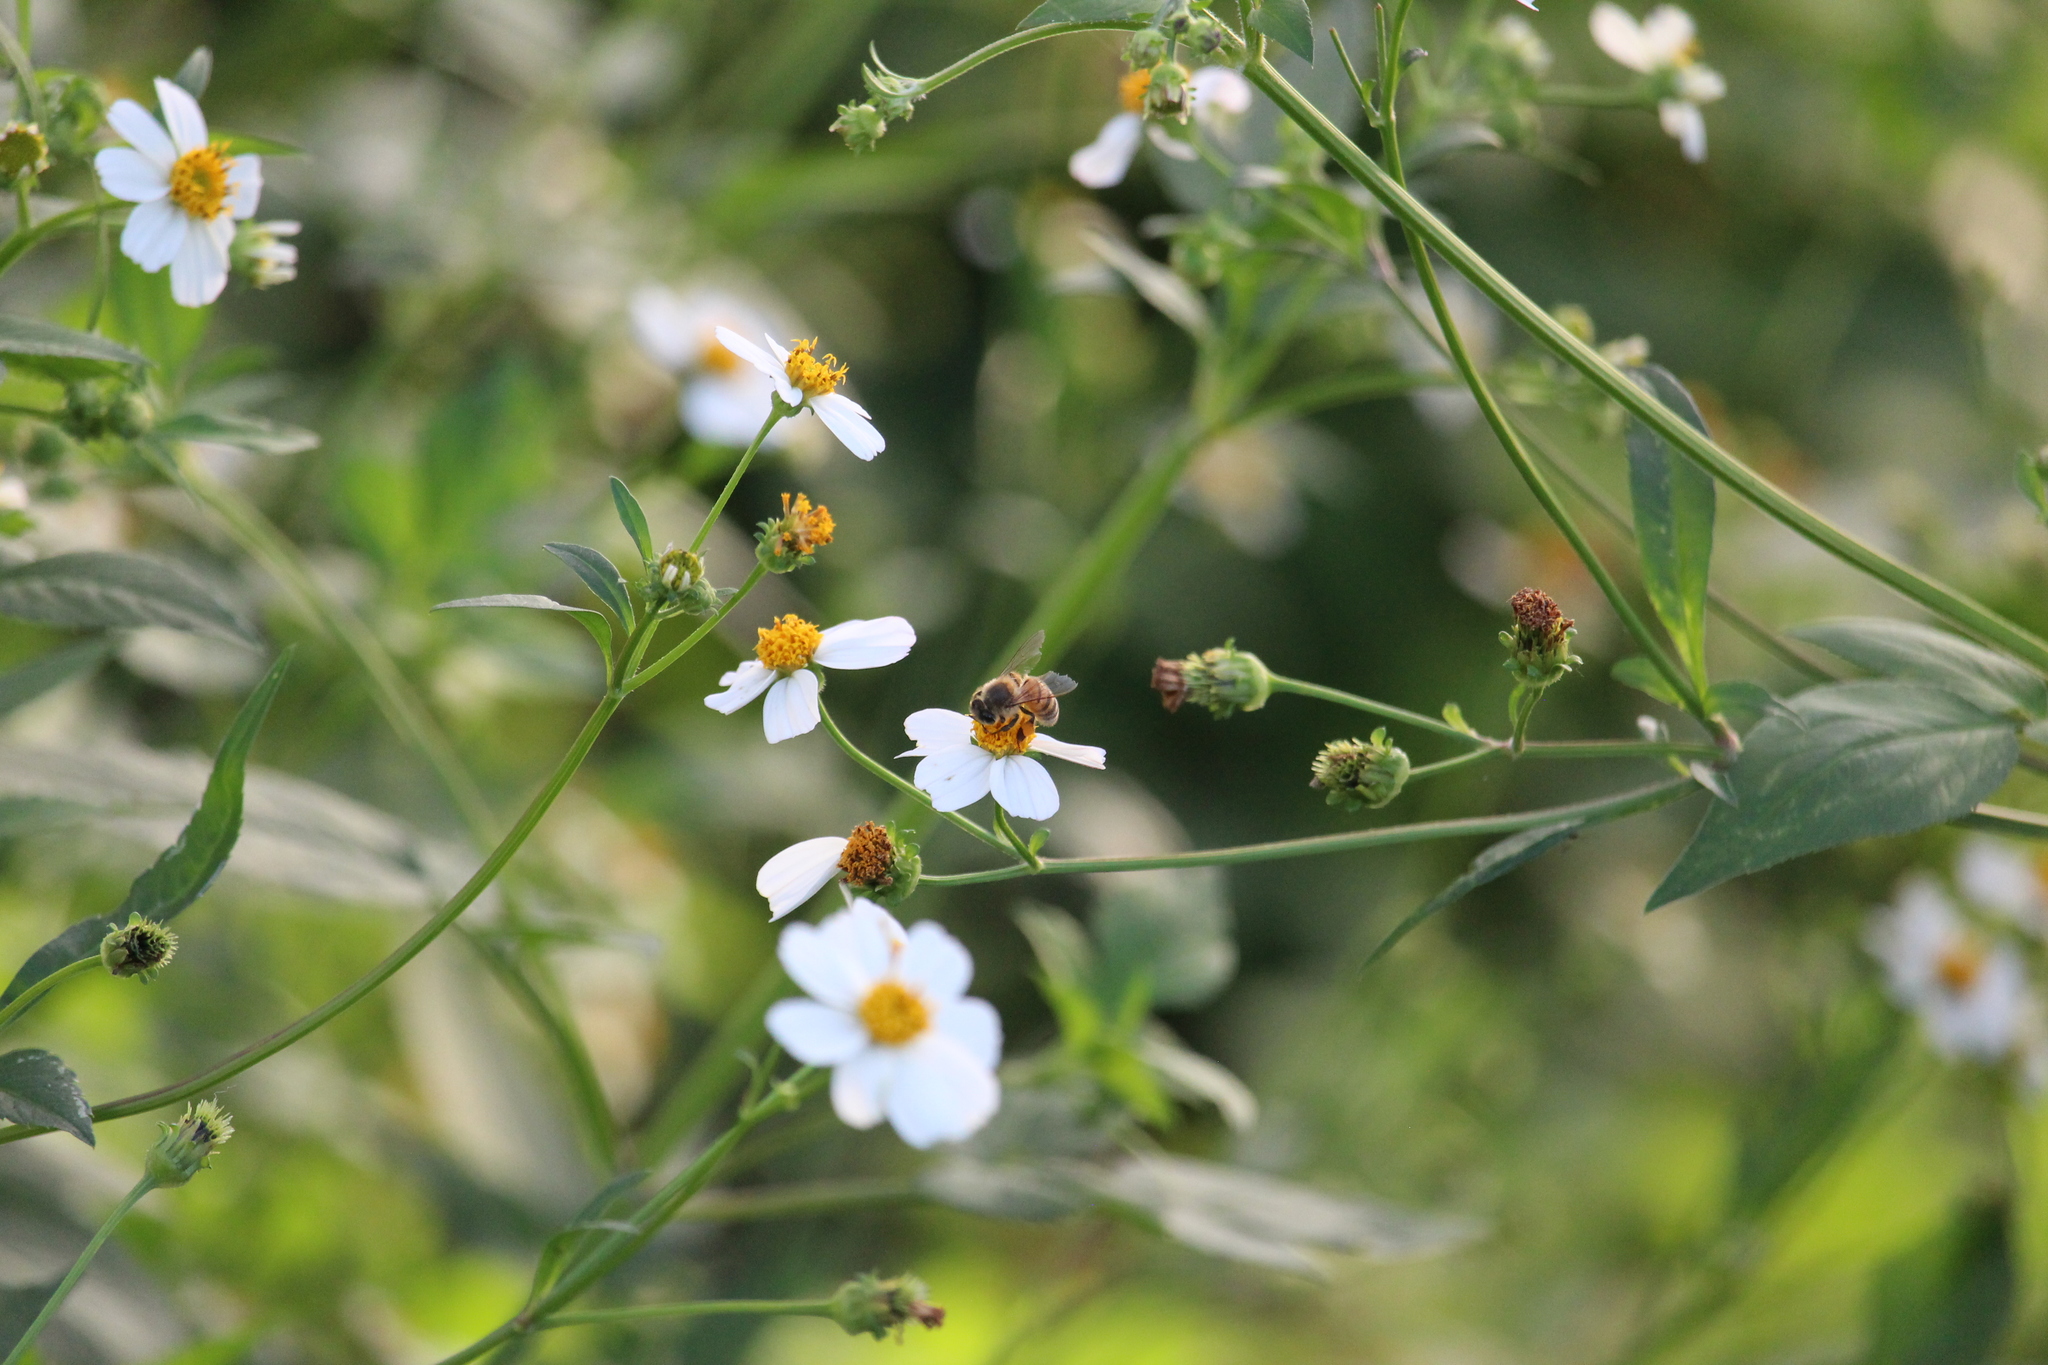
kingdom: Animalia
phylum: Arthropoda
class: Insecta
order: Hymenoptera
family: Apidae
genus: Apis
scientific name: Apis mellifera
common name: Honey bee
